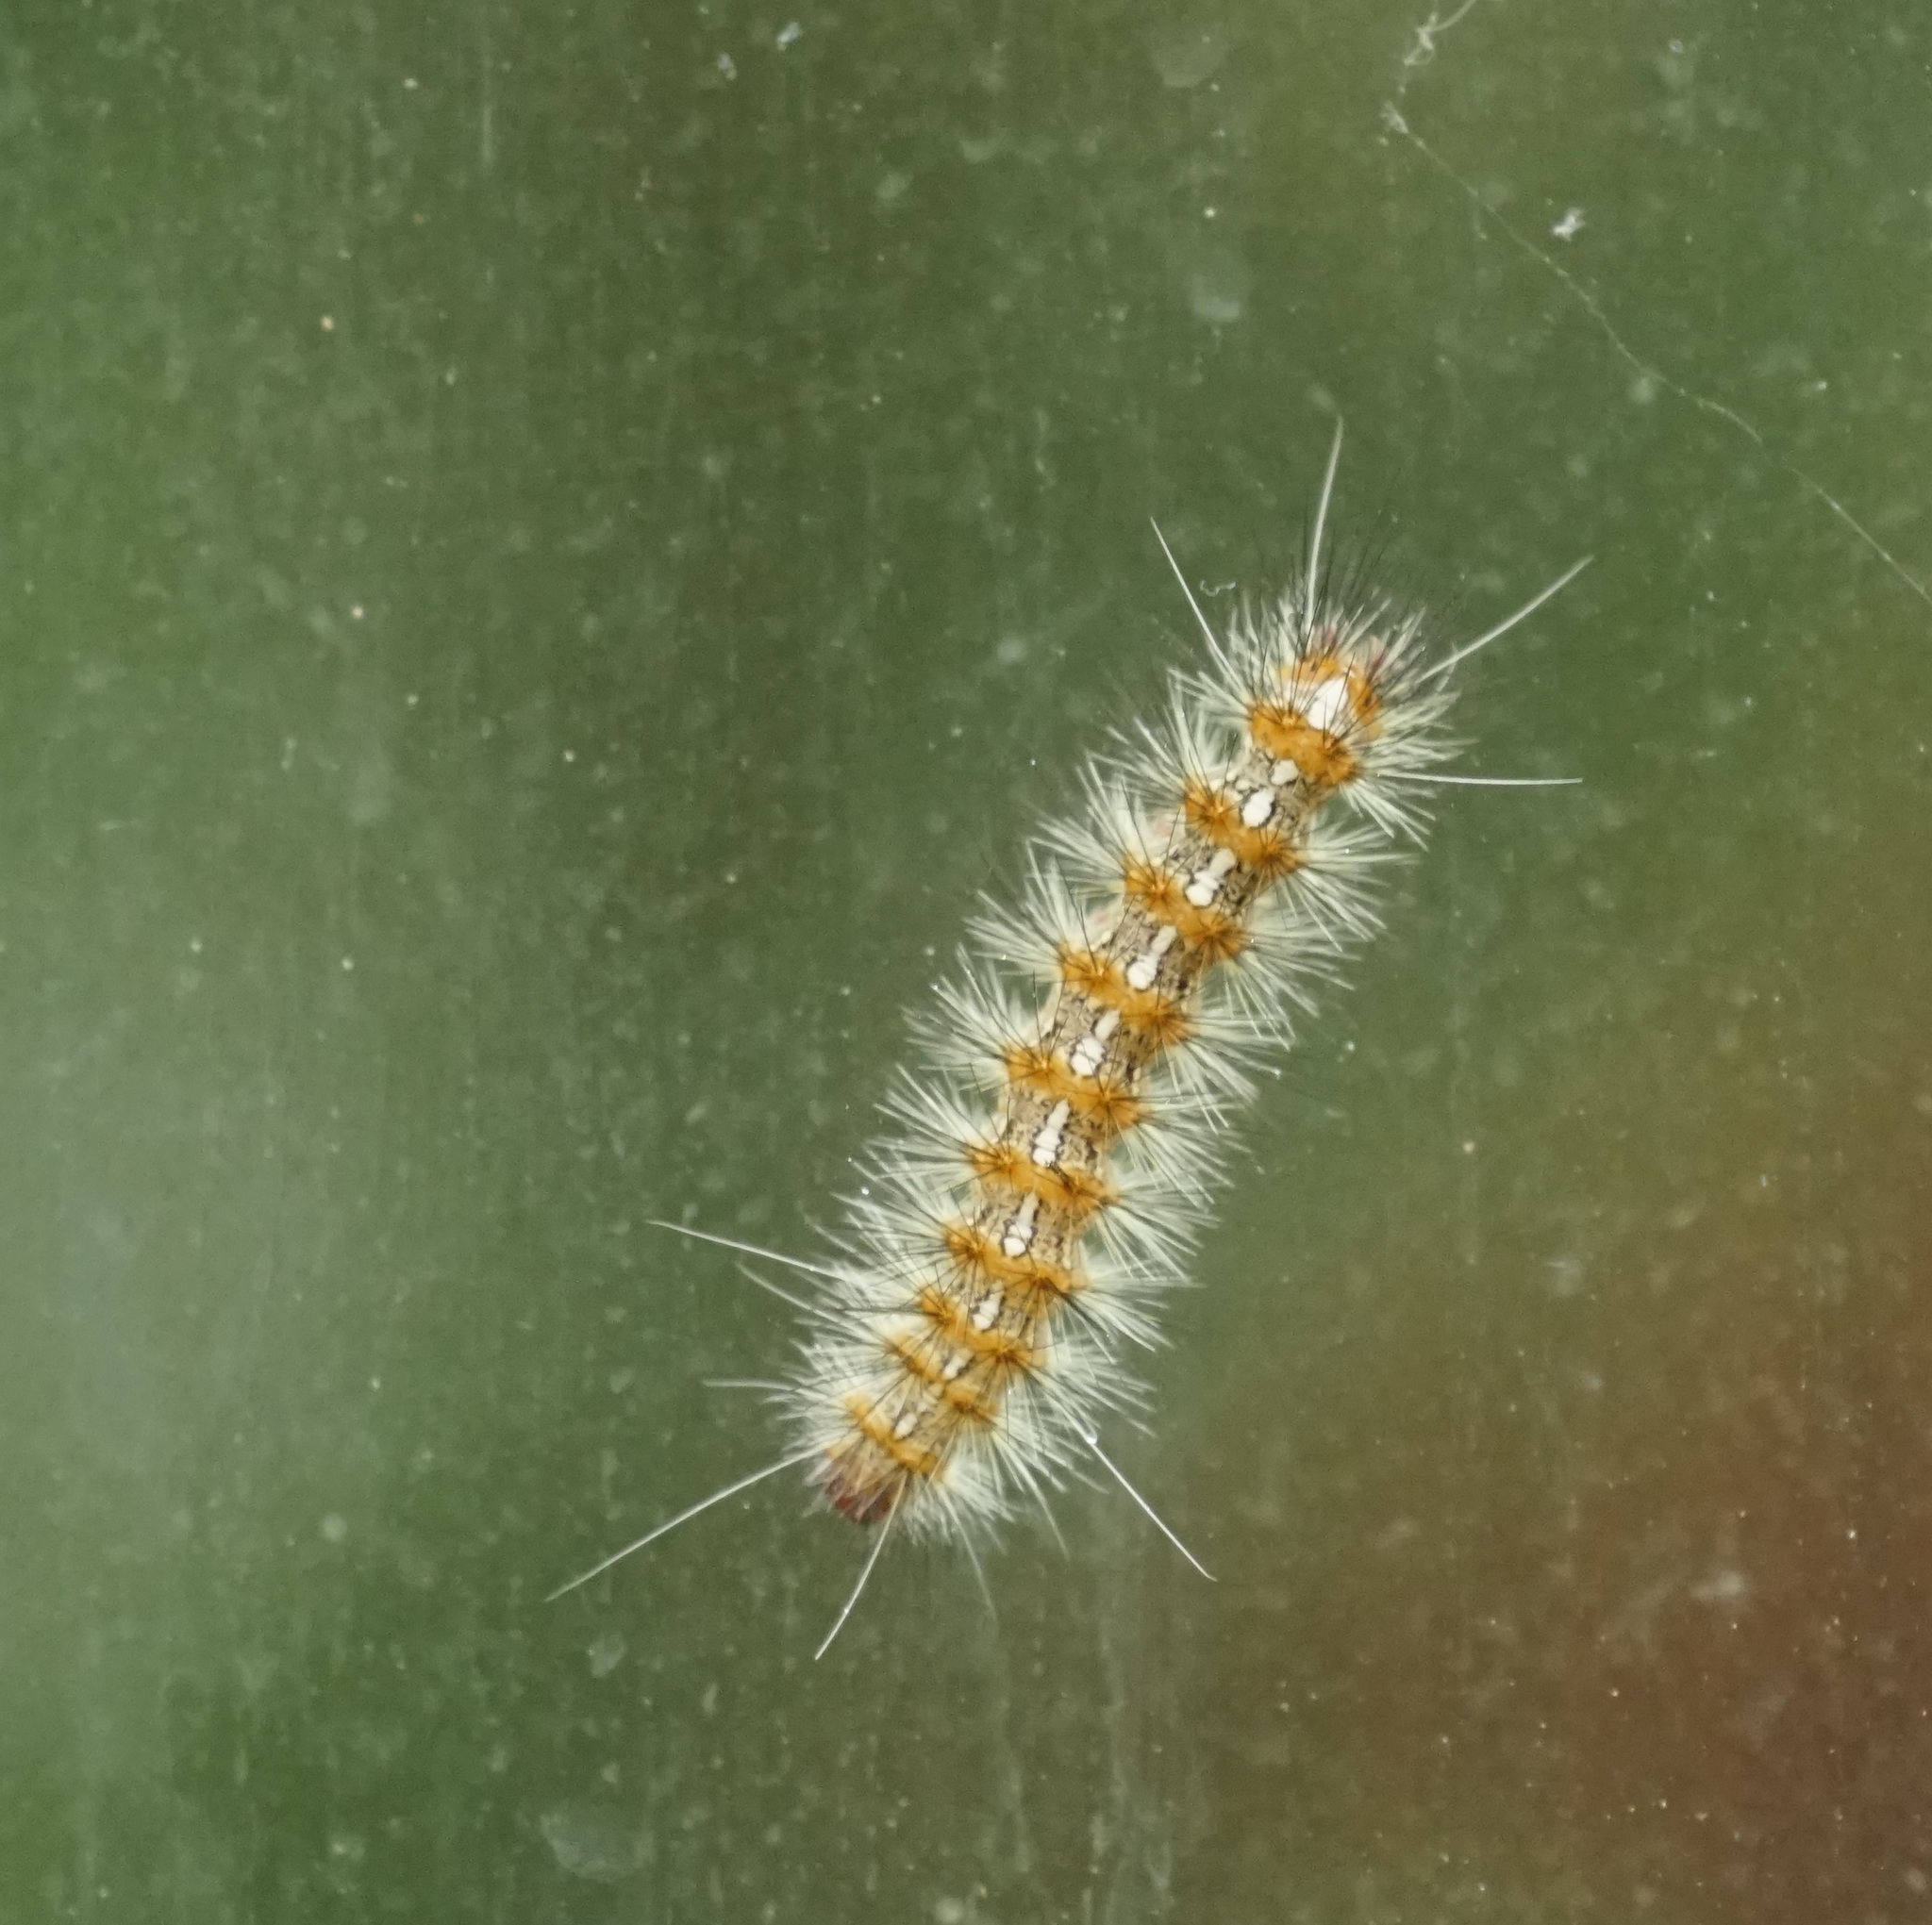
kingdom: Animalia
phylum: Arthropoda
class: Insecta
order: Lepidoptera
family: Erebidae
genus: Lemyra
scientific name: Lemyra imparilis
